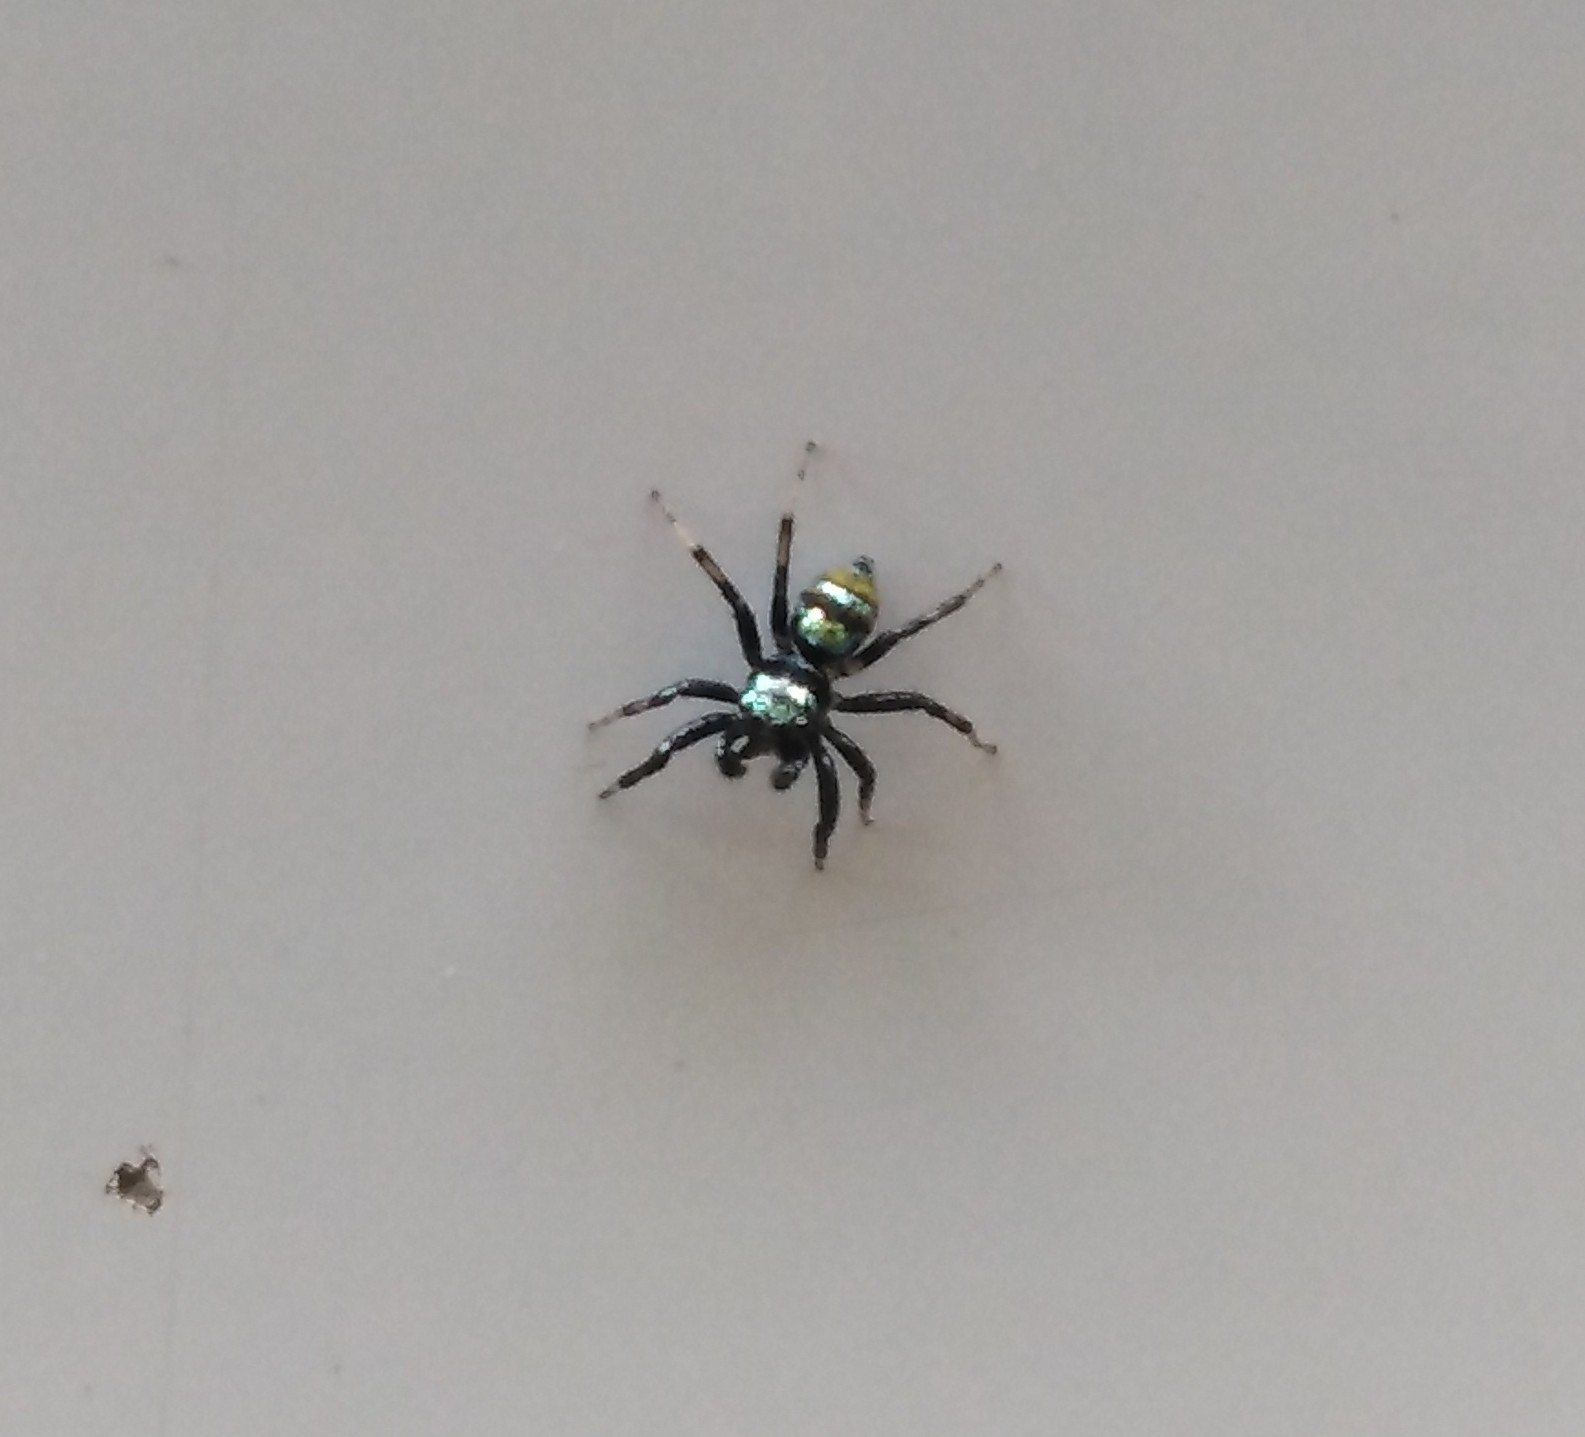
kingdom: Animalia
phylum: Arthropoda
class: Arachnida
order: Araneae
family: Salticidae
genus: Phintella
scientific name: Phintella vittata
